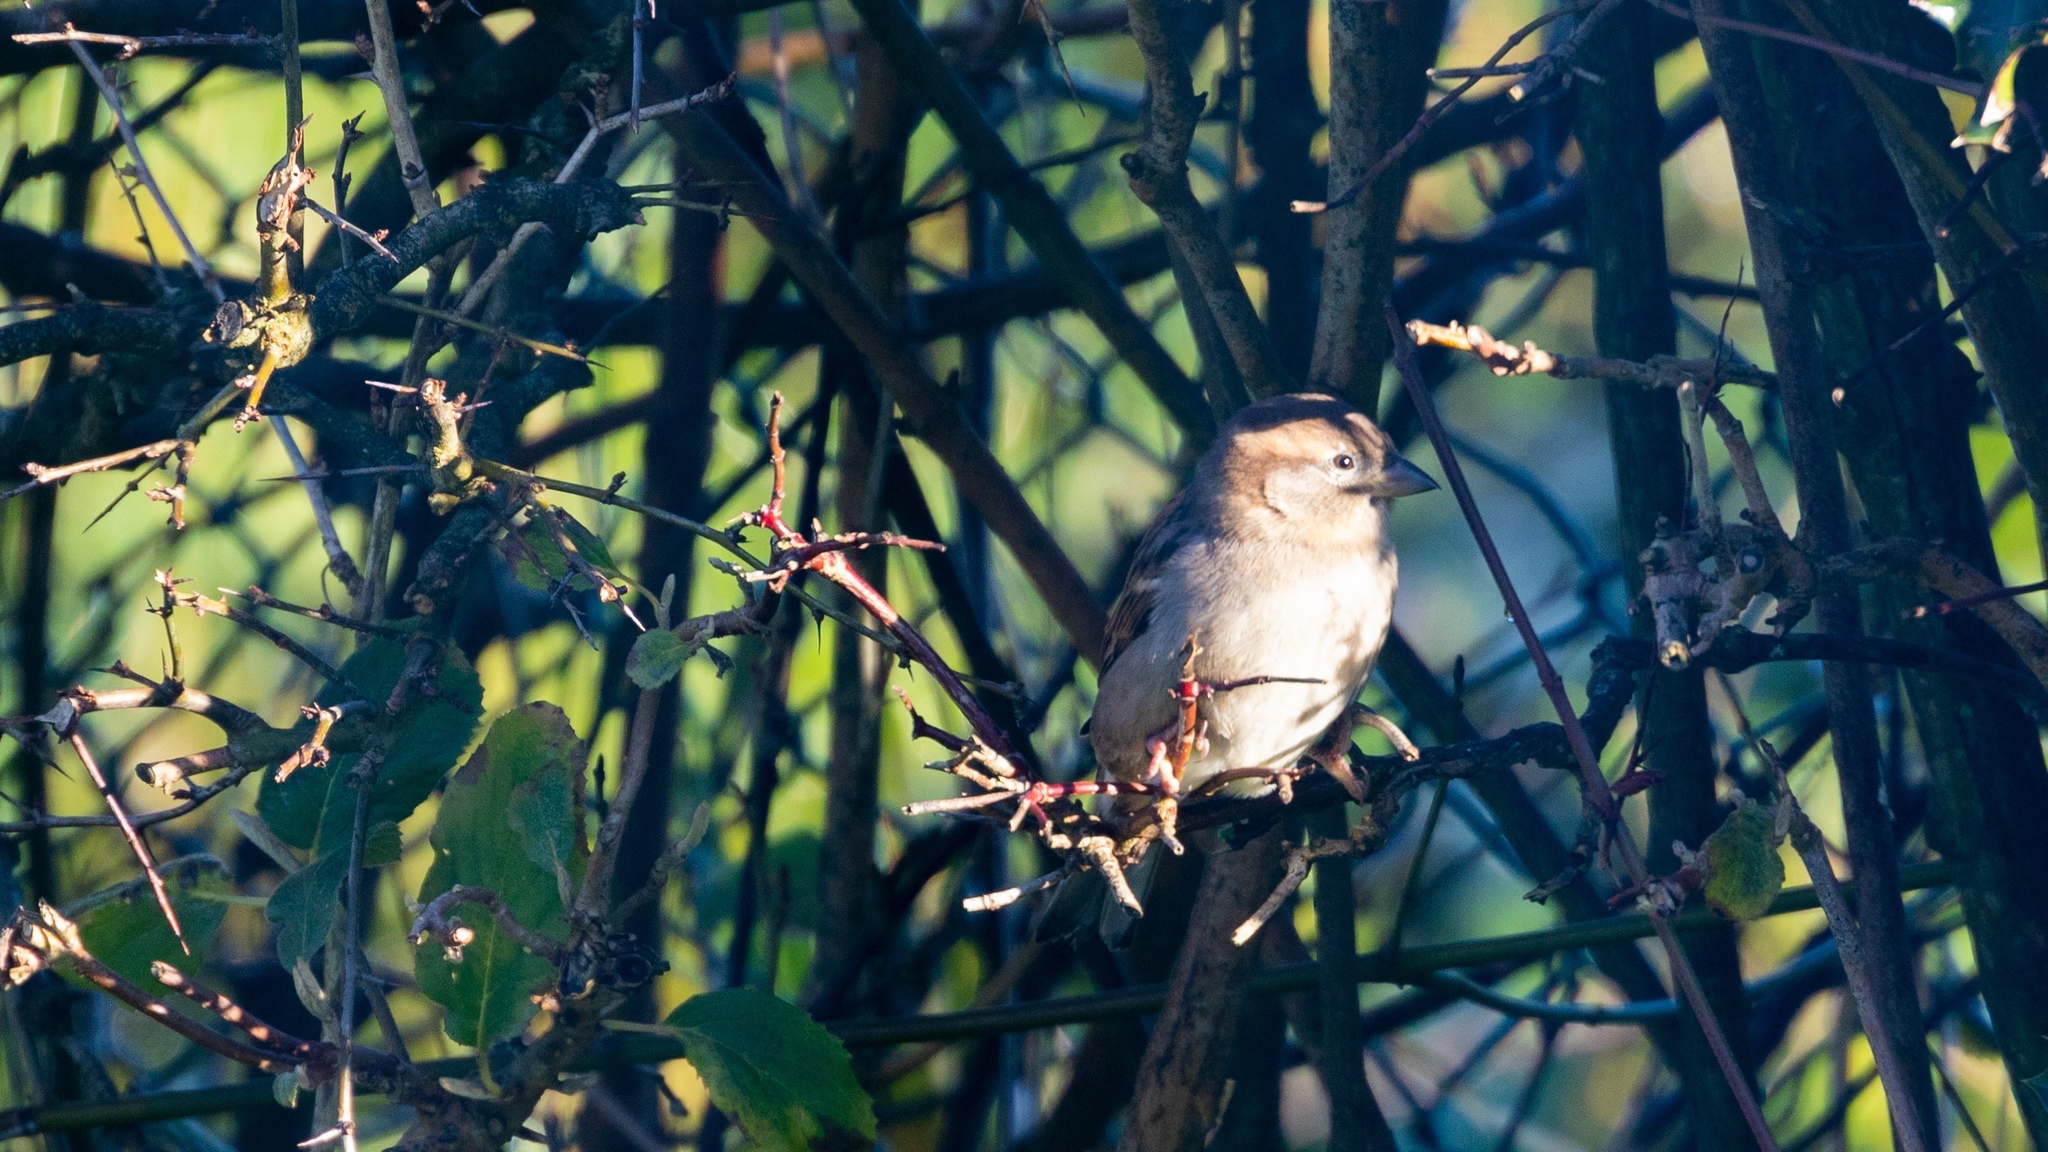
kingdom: Animalia
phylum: Chordata
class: Aves
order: Passeriformes
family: Passeridae
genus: Passer
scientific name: Passer domesticus
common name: House sparrow
